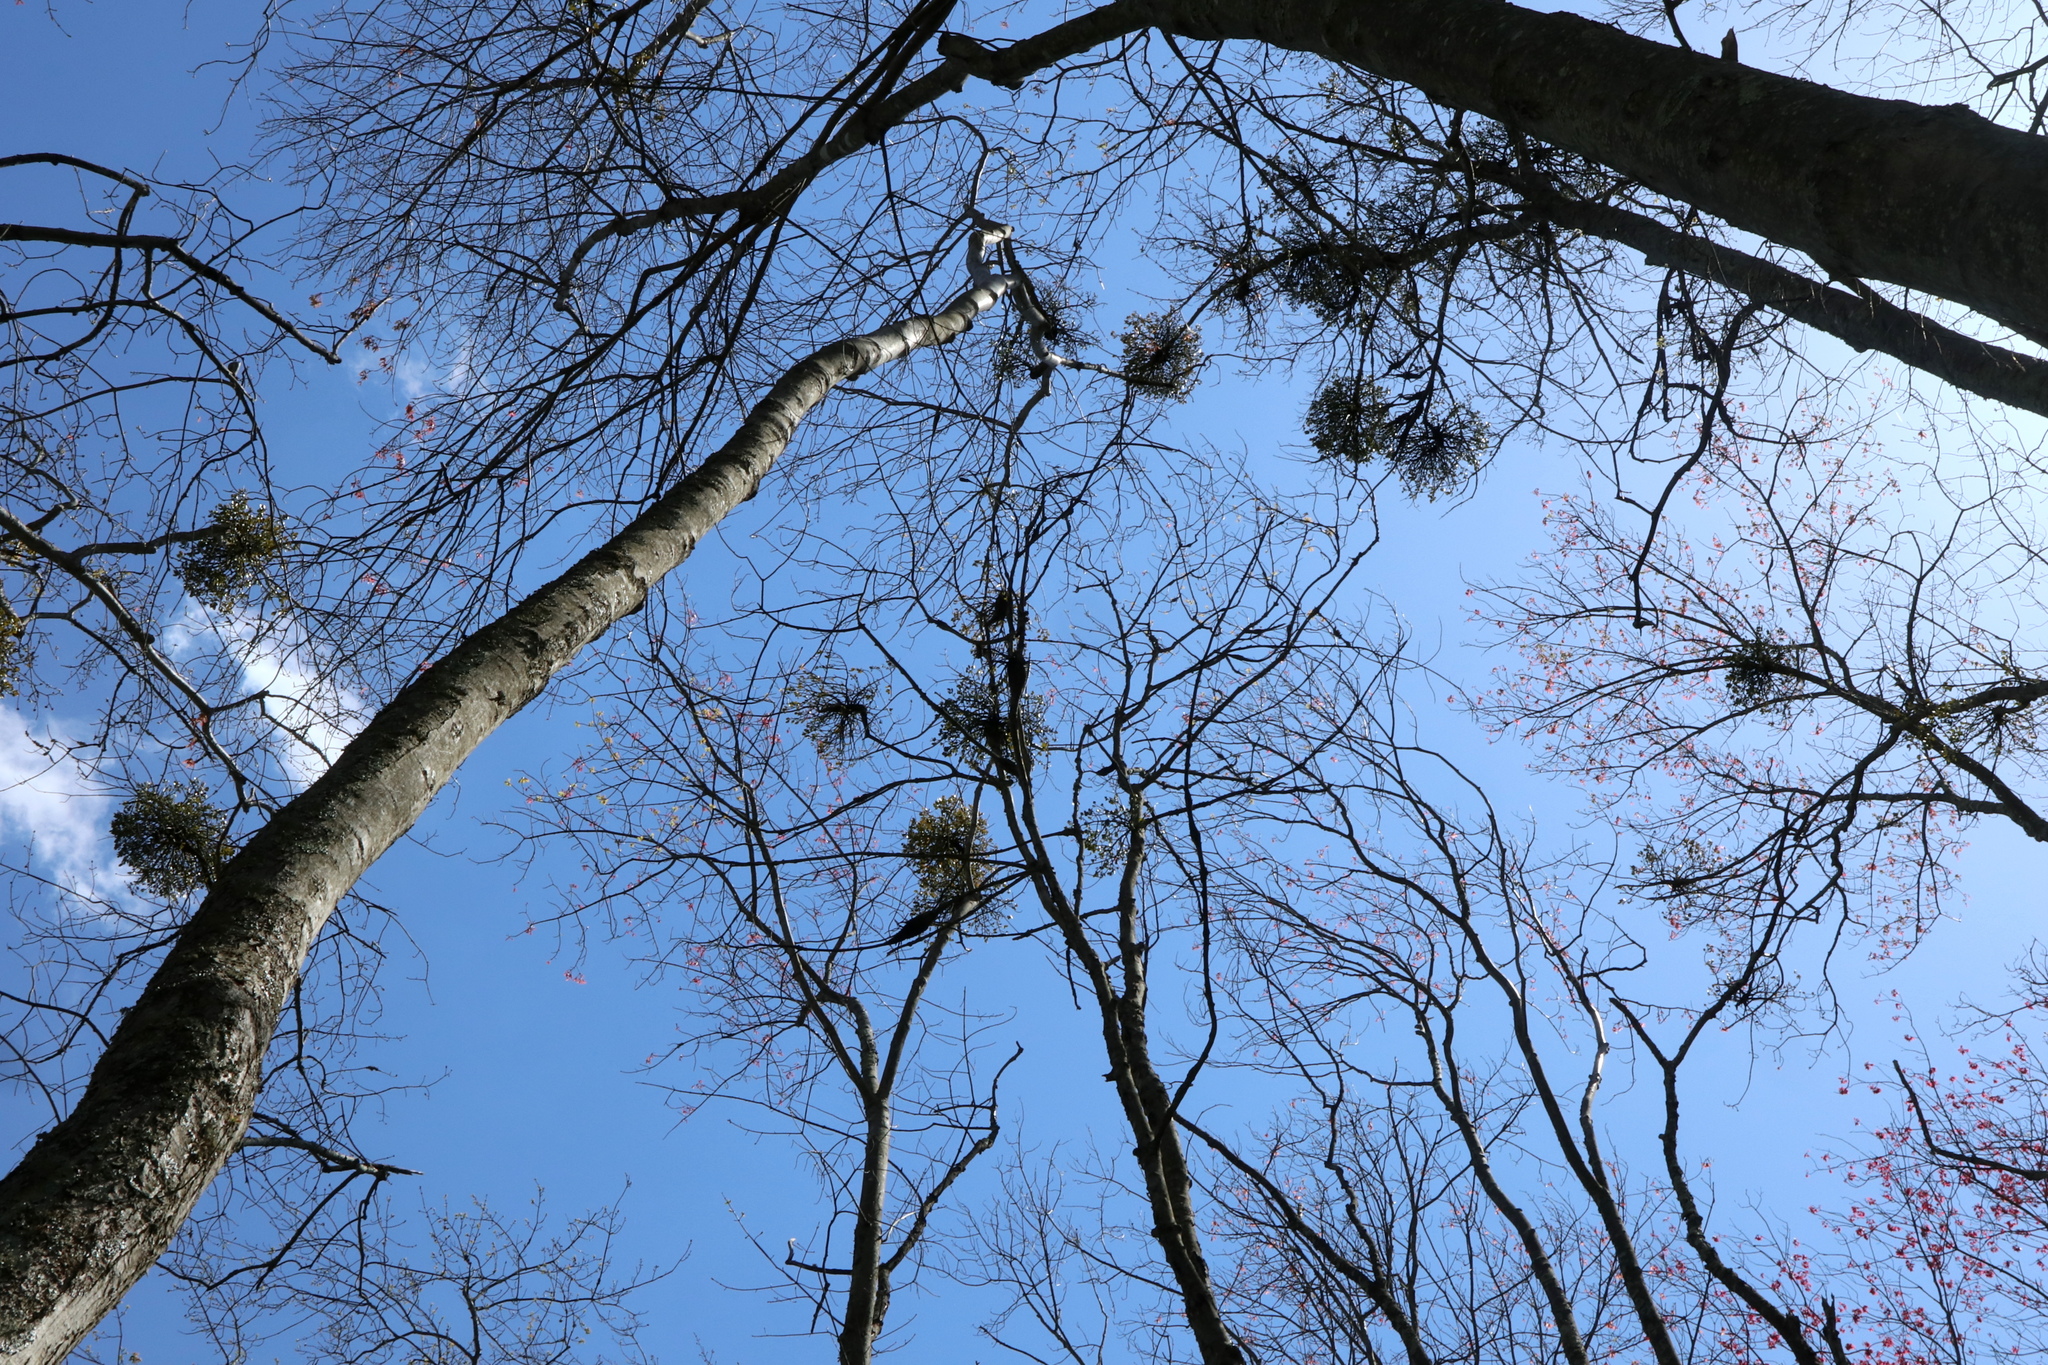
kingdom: Plantae
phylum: Tracheophyta
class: Magnoliopsida
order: Santalales
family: Viscaceae
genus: Phoradendron
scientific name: Phoradendron leucarpum
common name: Pacific mistletoe
